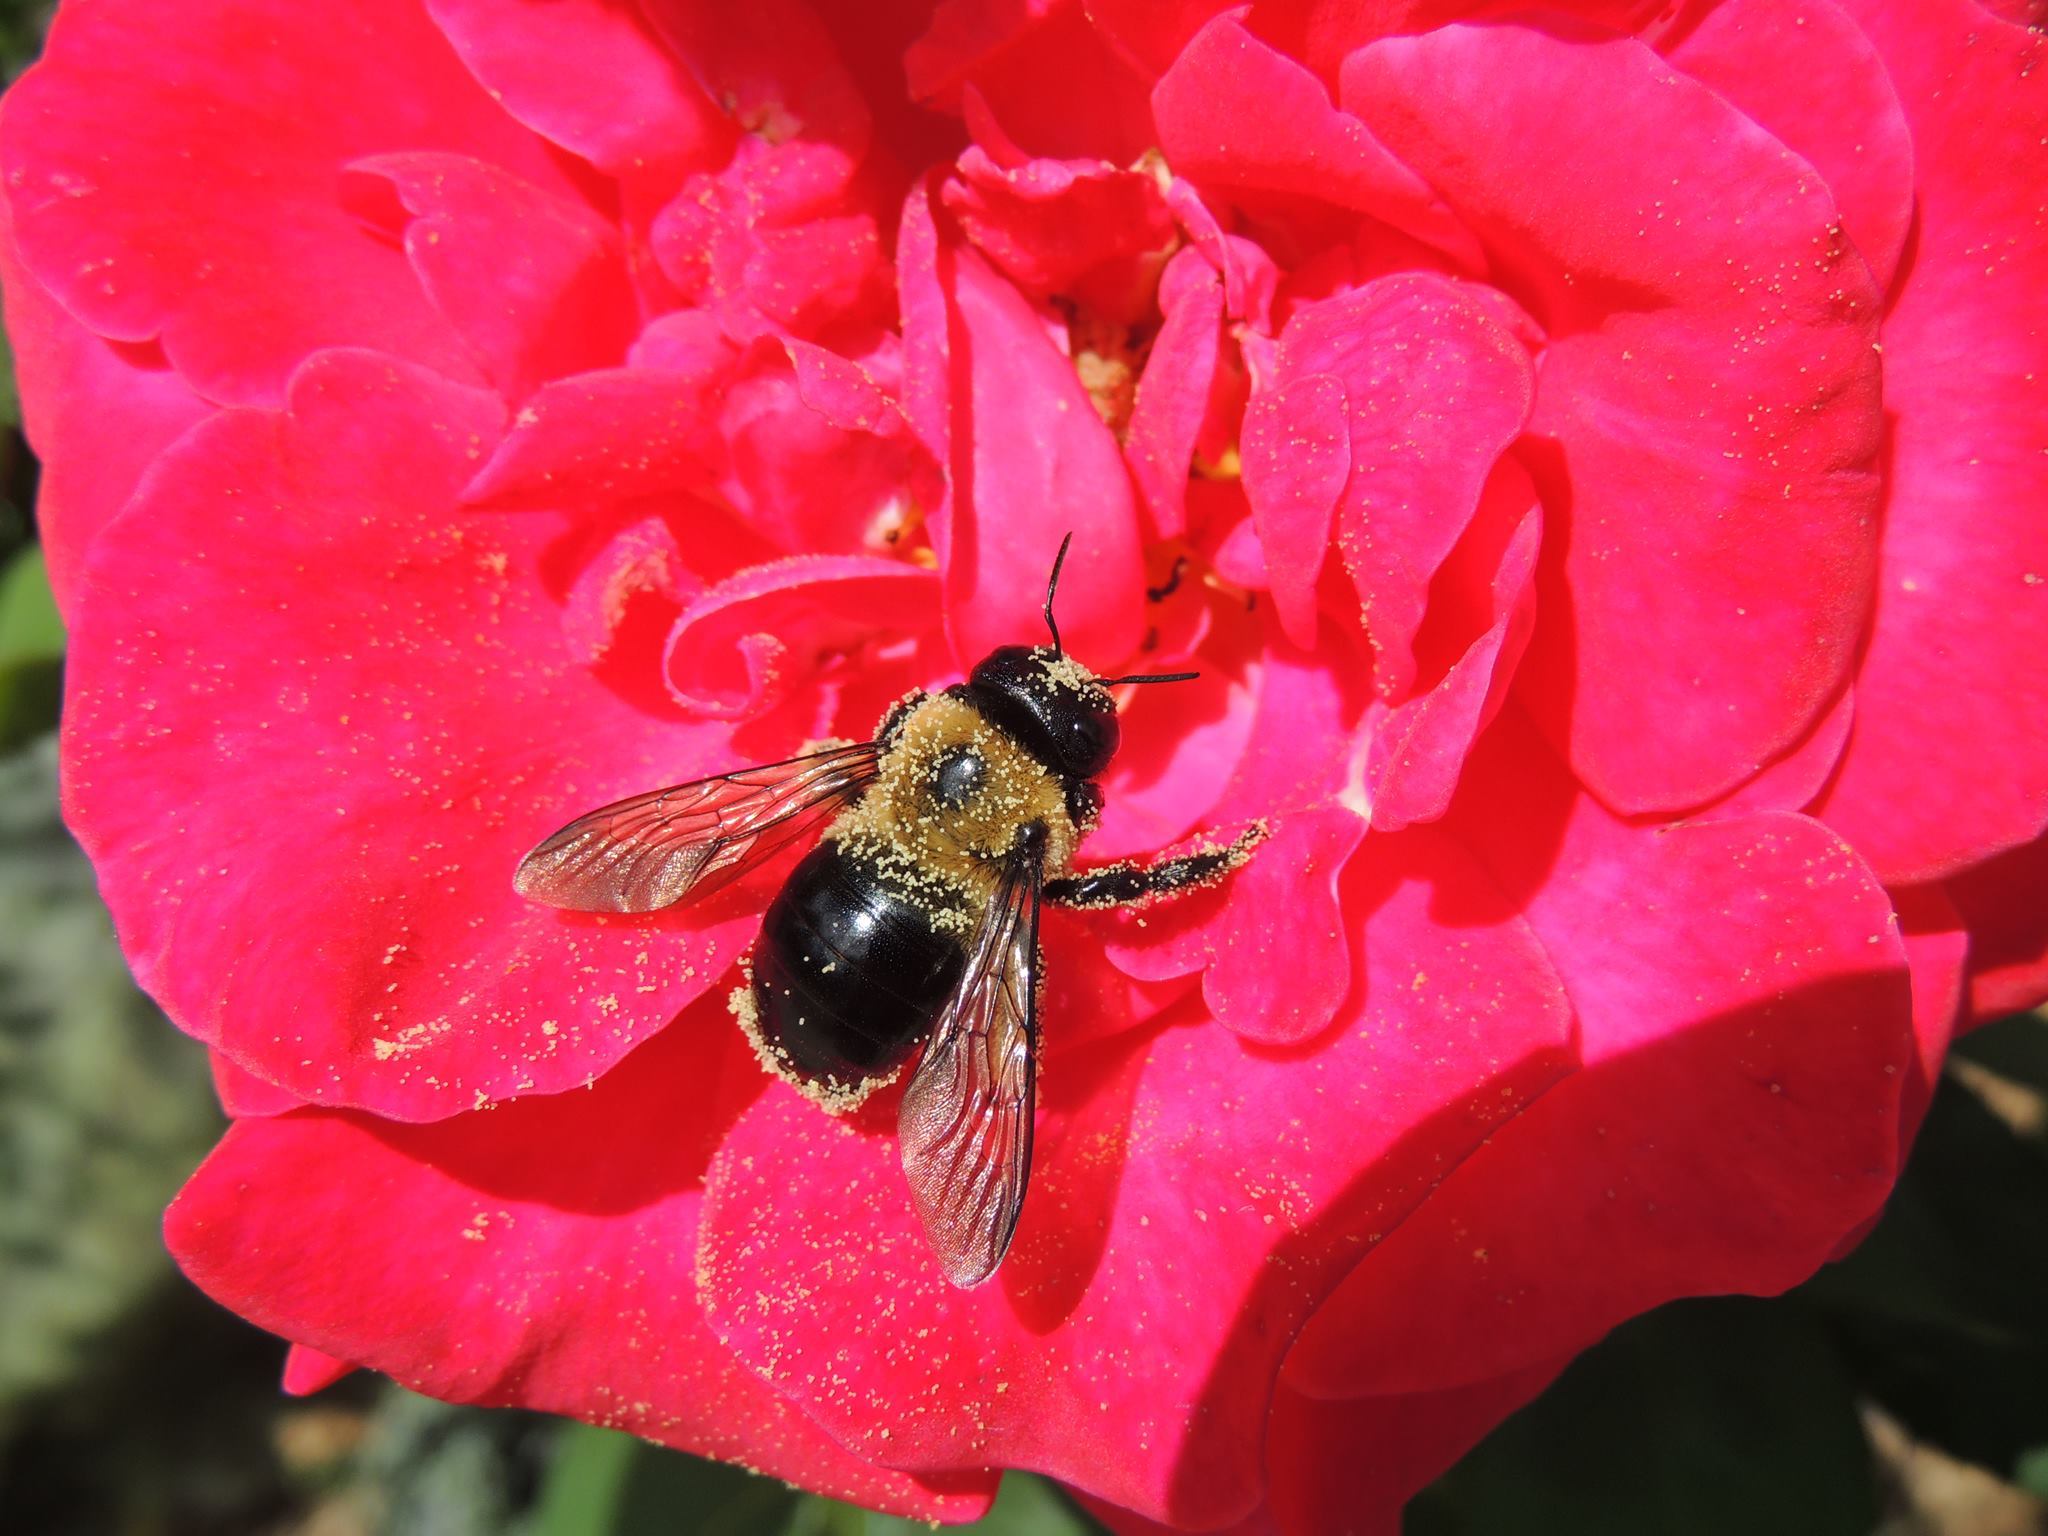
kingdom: Animalia
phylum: Arthropoda
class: Insecta
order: Hymenoptera
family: Apidae
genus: Xylocopa
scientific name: Xylocopa virginica
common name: Carpenter bee
